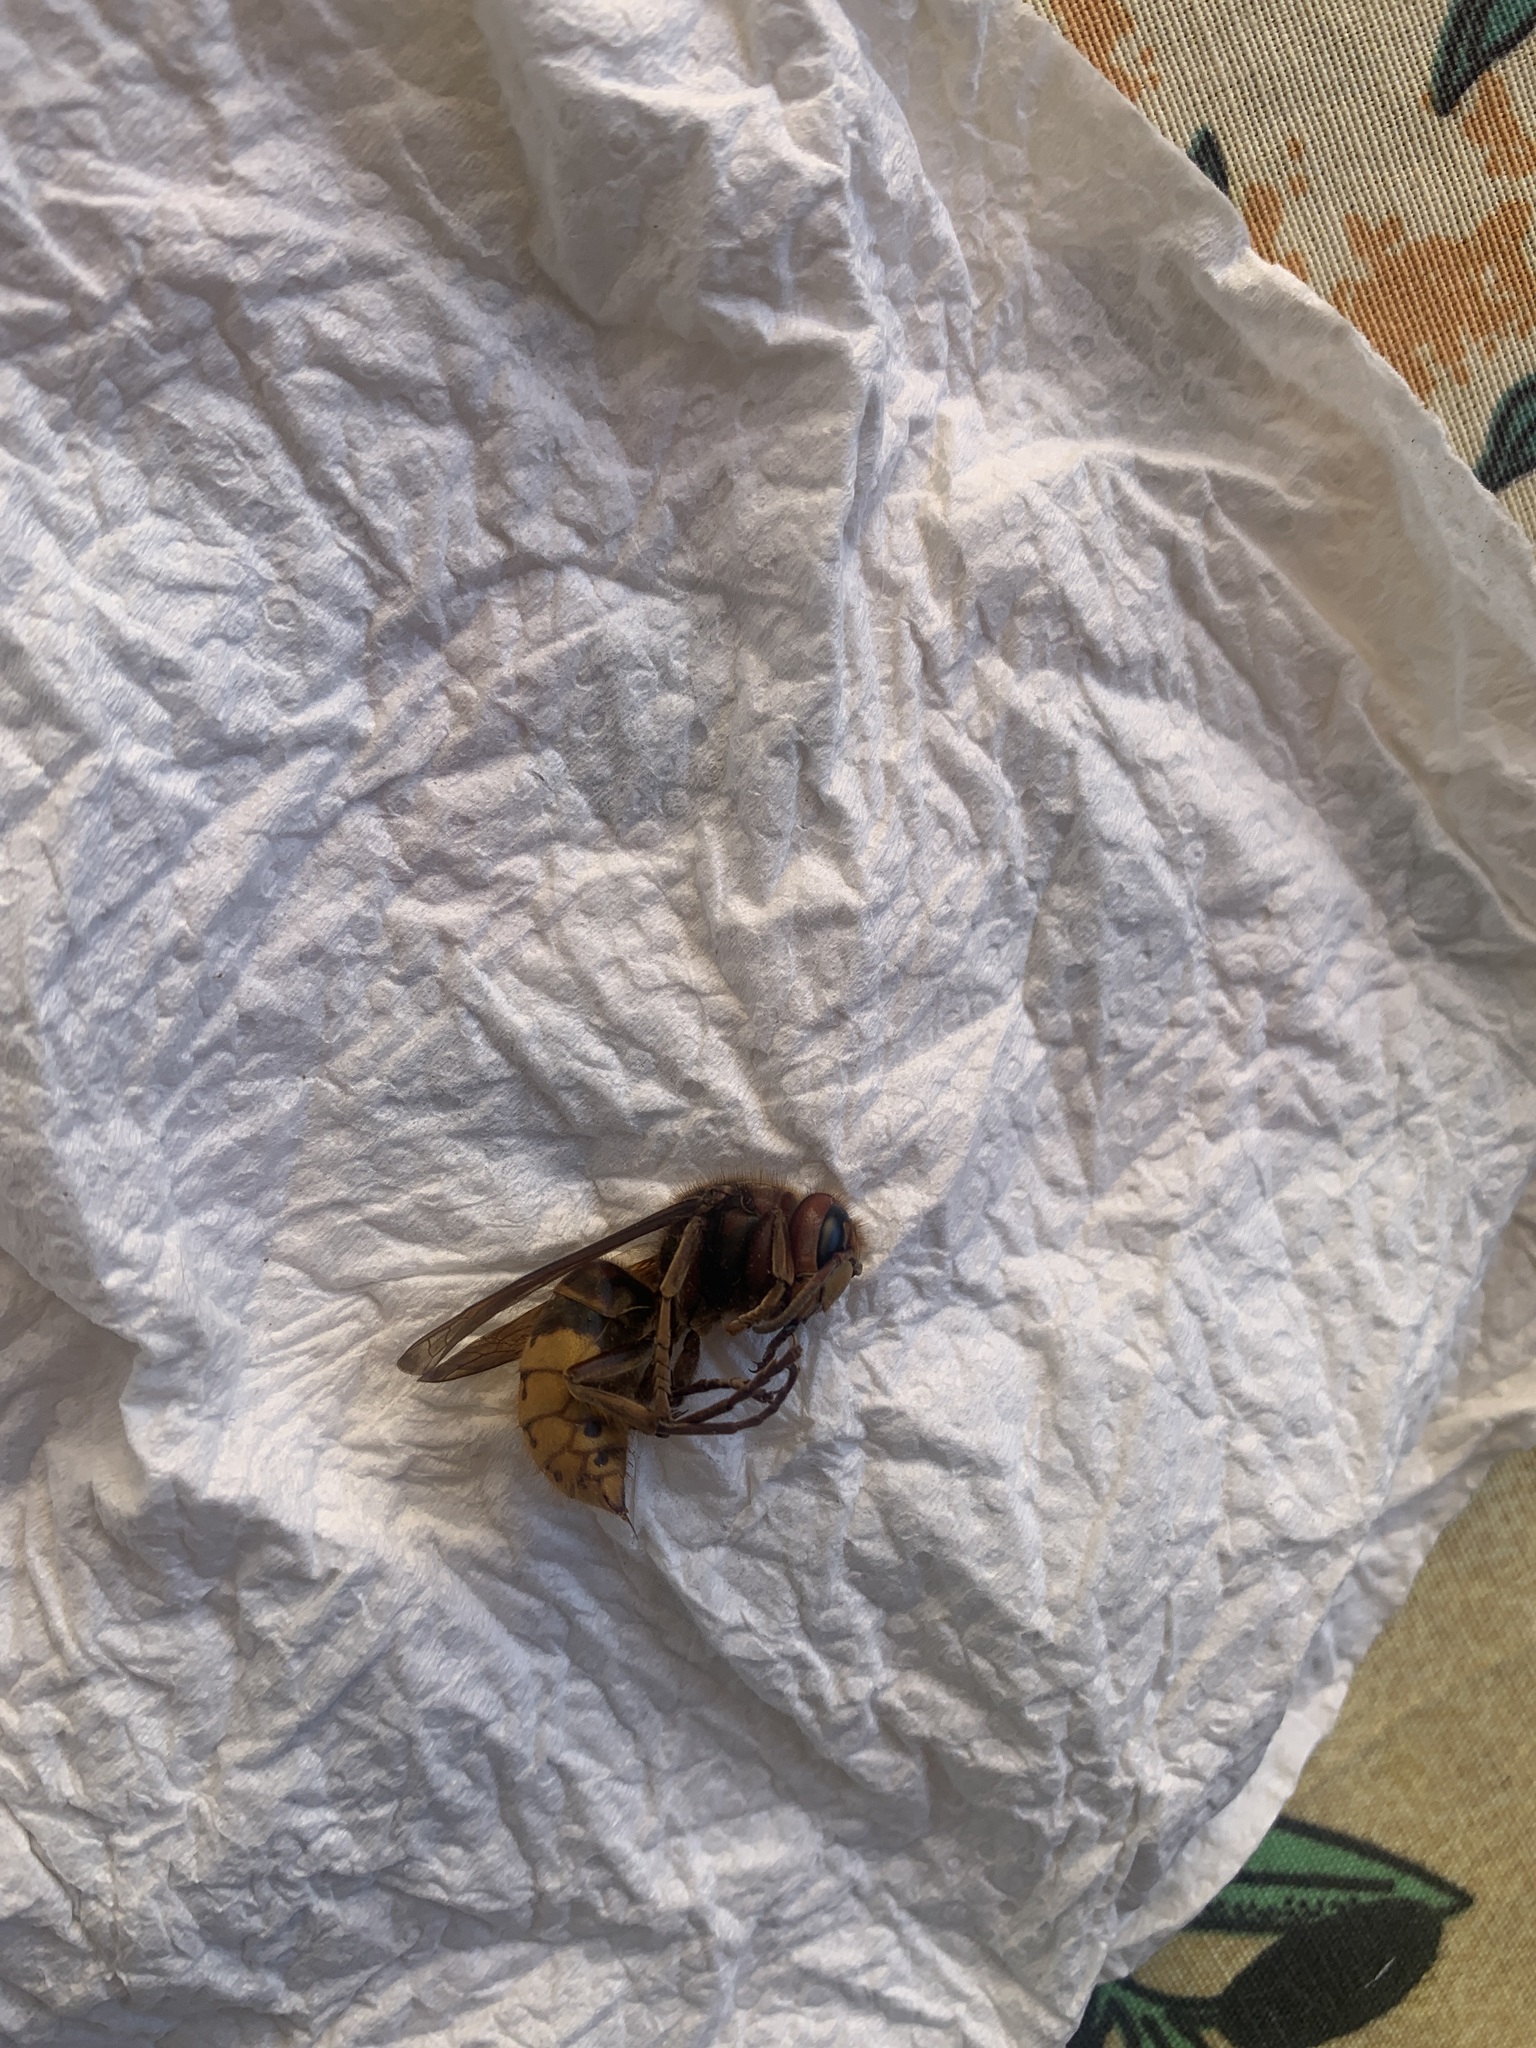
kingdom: Animalia
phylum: Arthropoda
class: Insecta
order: Hymenoptera
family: Vespidae
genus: Vespa
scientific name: Vespa crabro
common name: Hornet
